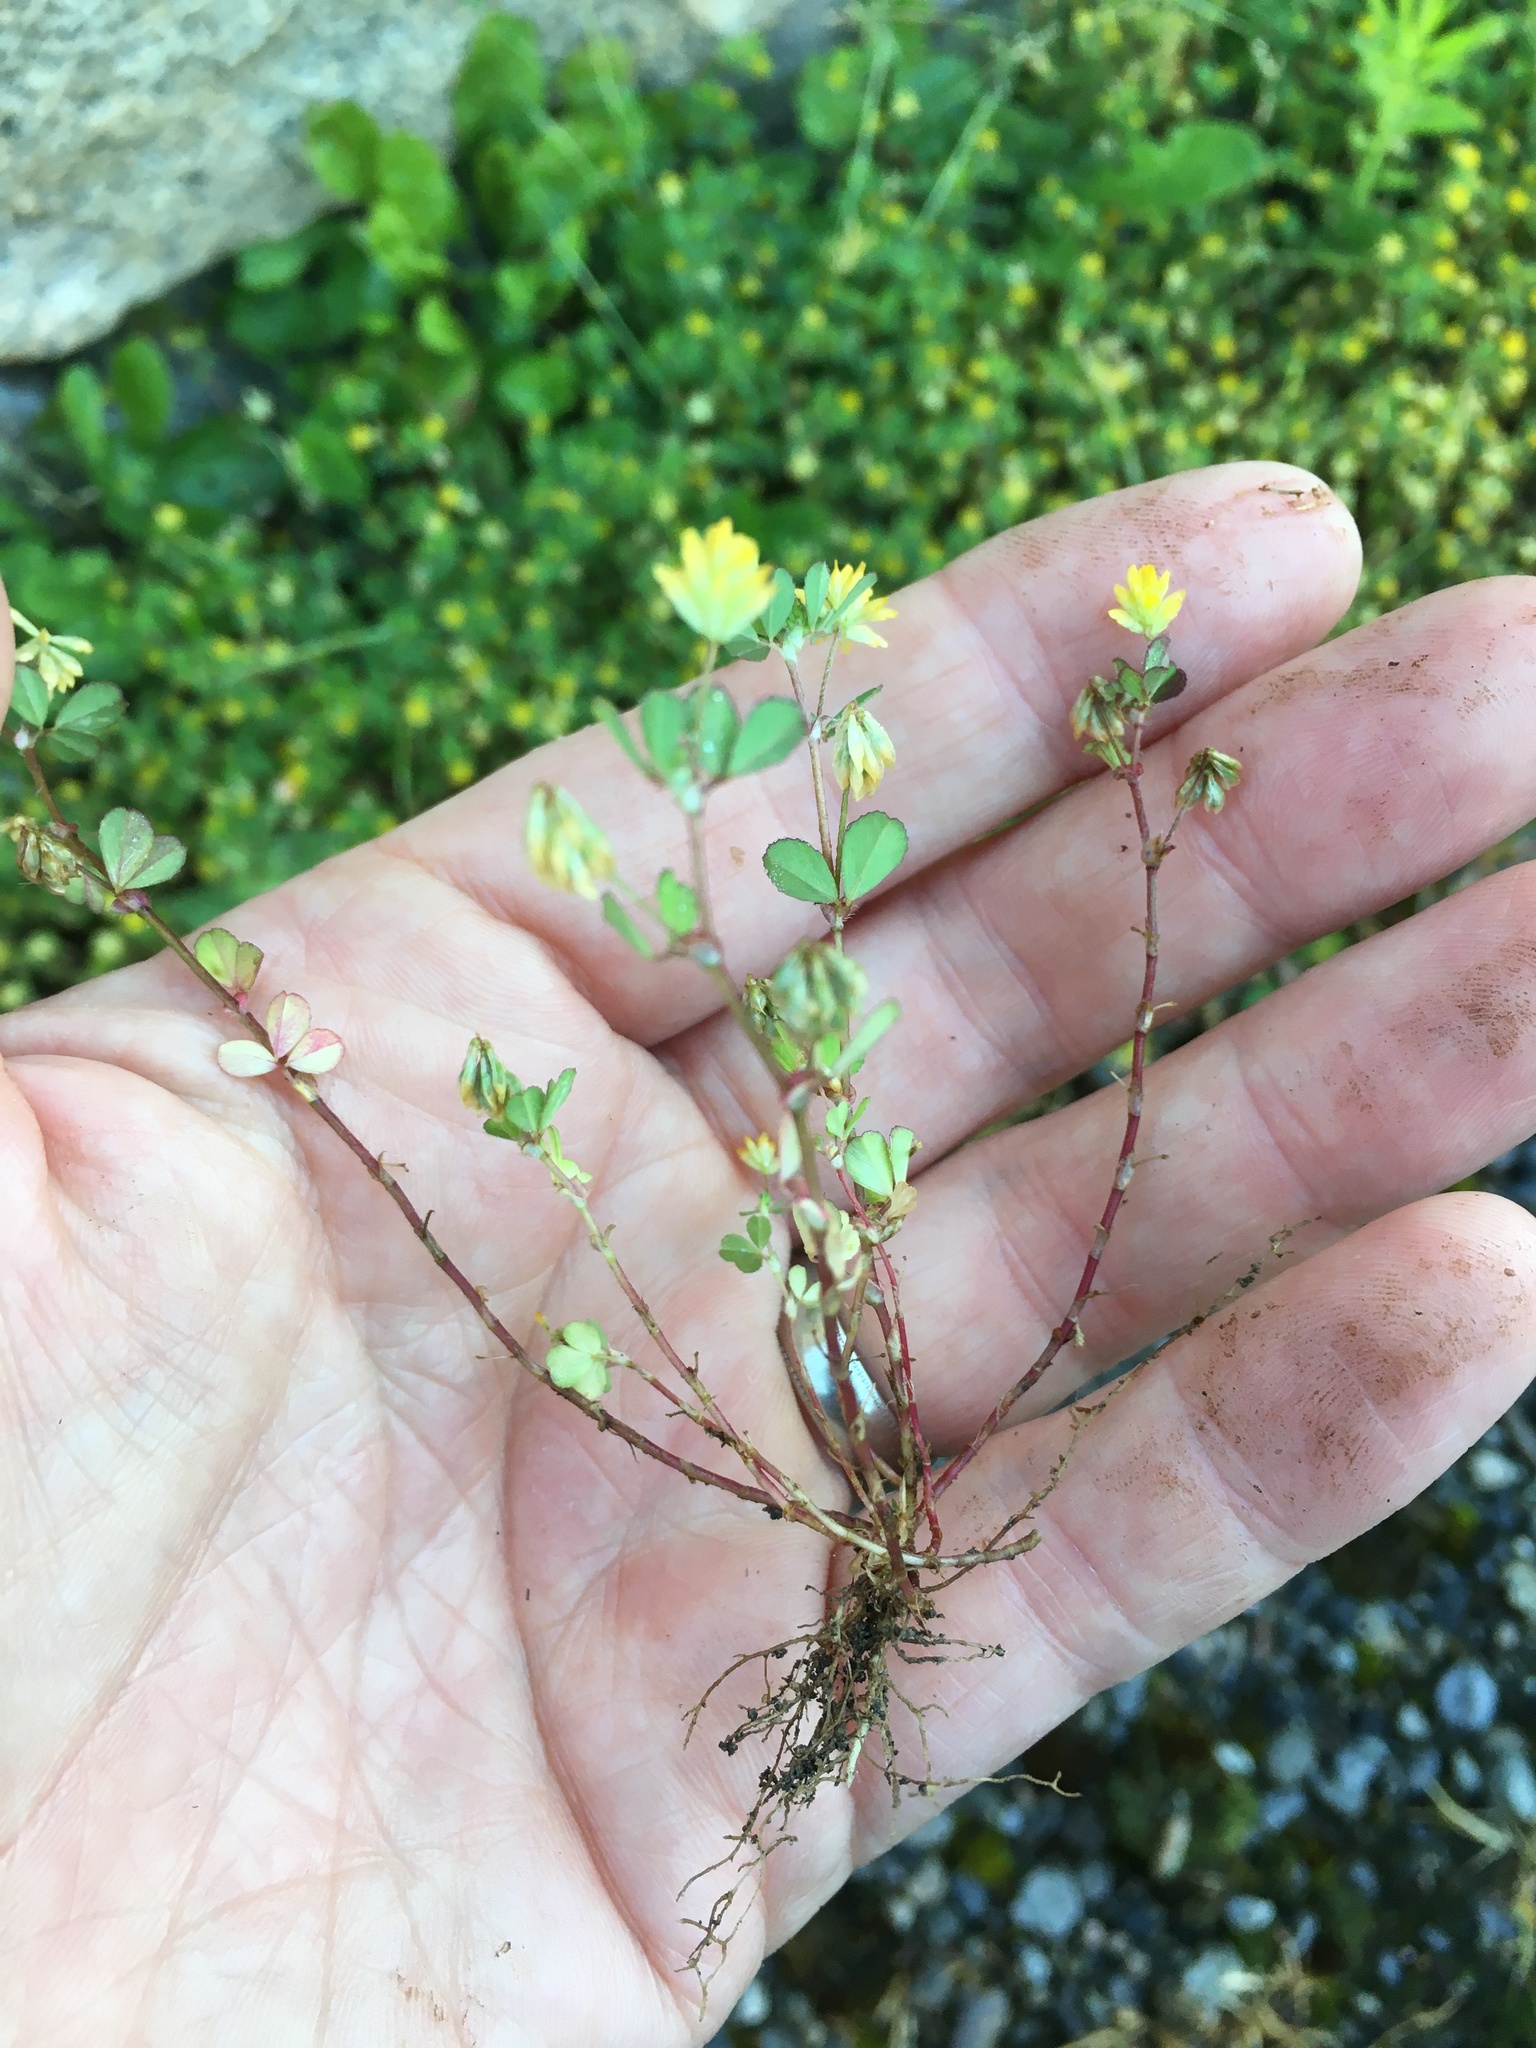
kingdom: Plantae
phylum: Tracheophyta
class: Magnoliopsida
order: Fabales
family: Fabaceae
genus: Trifolium
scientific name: Trifolium dubium
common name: Suckling clover
